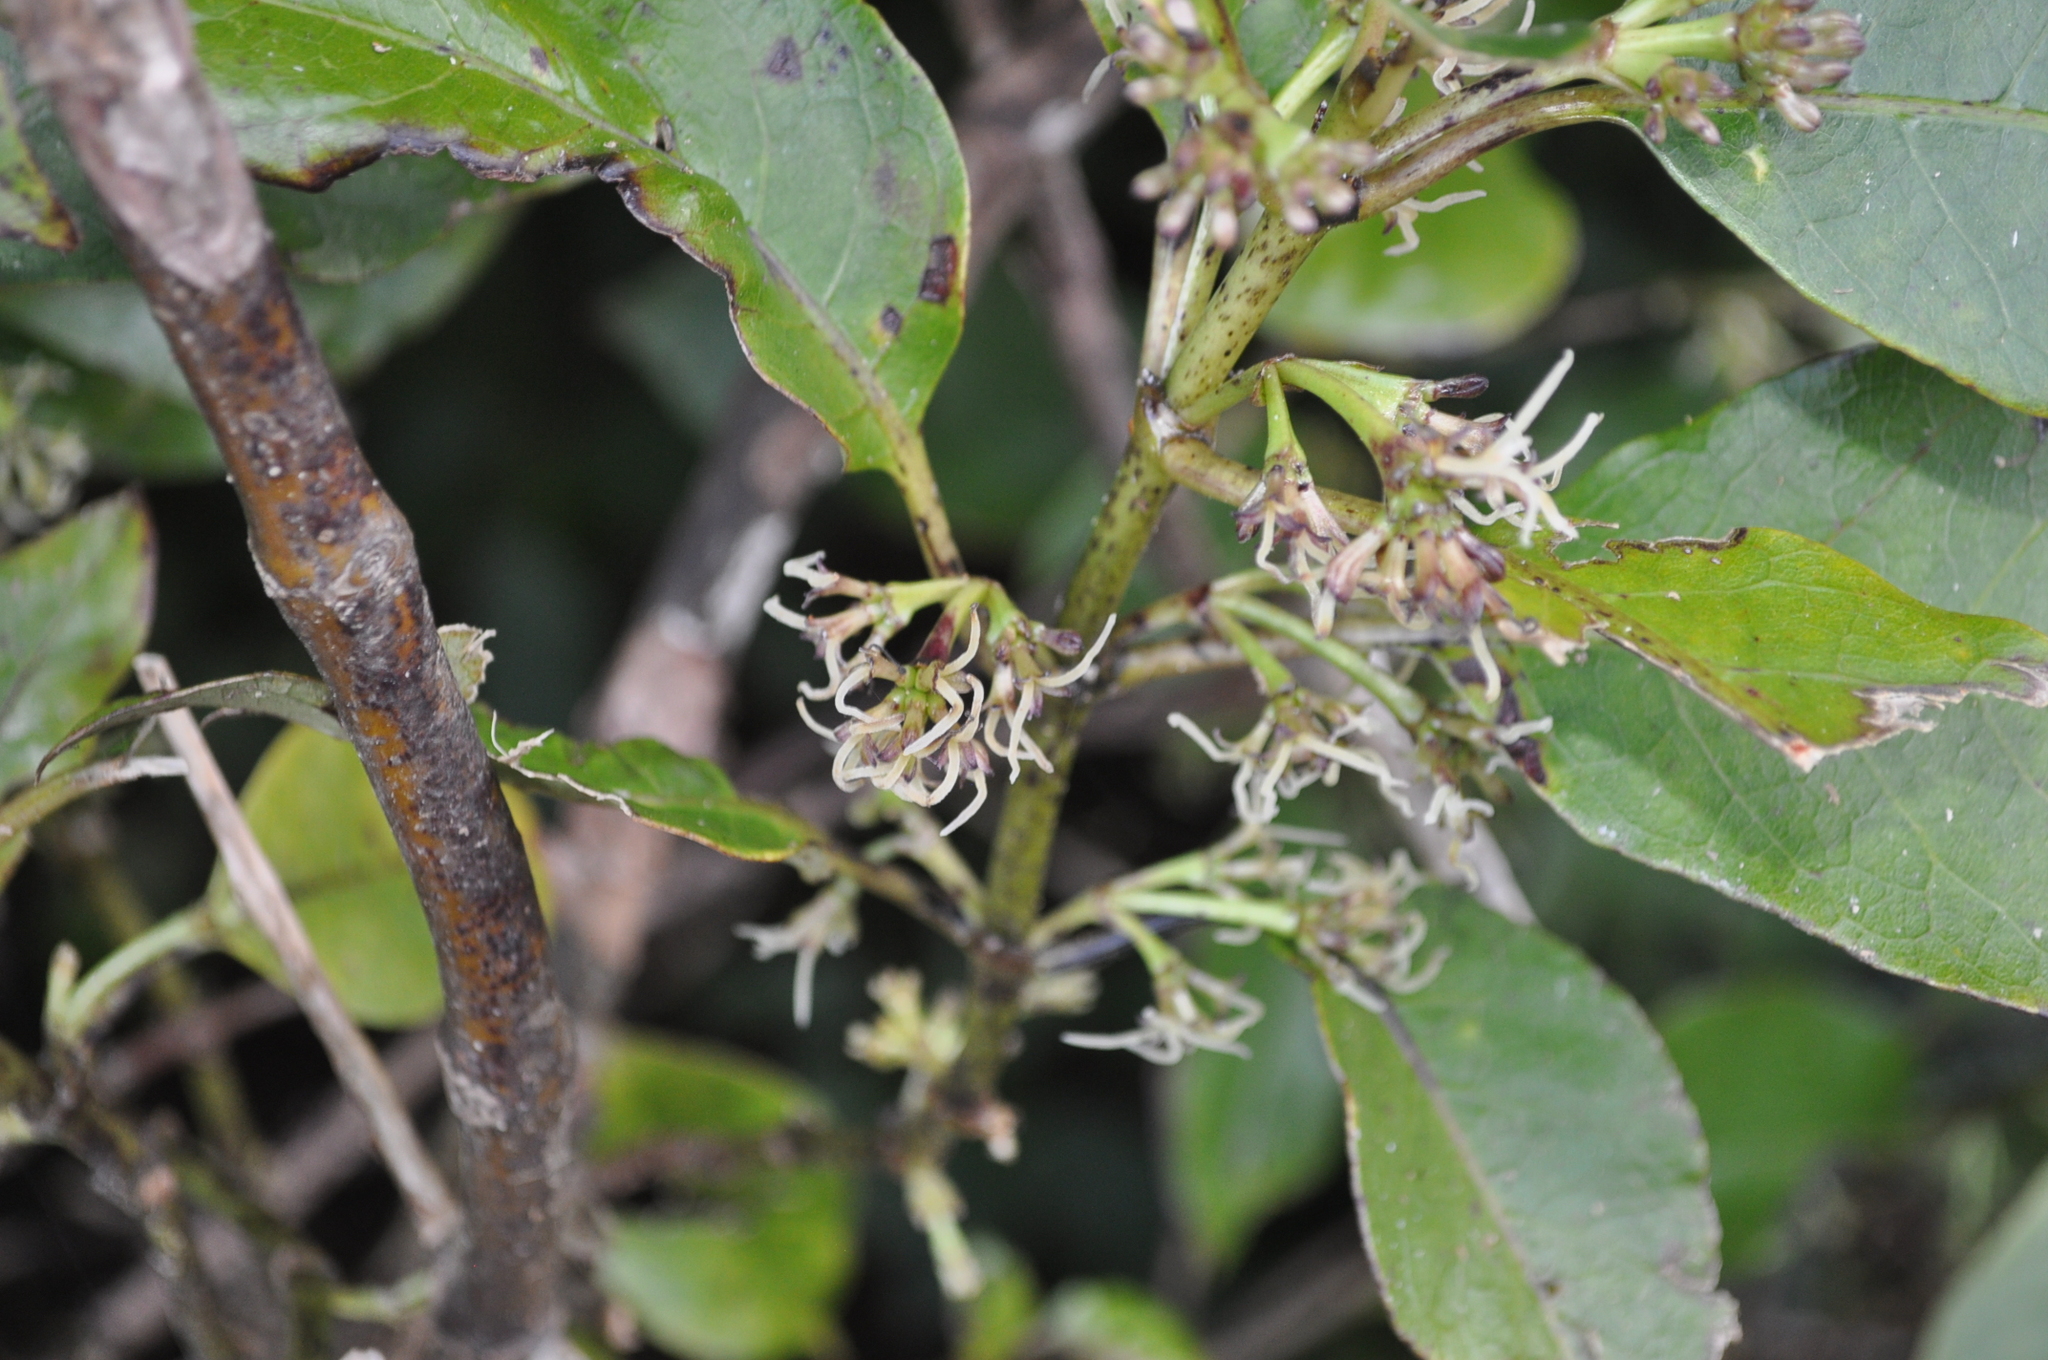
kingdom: Plantae
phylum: Tracheophyta
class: Magnoliopsida
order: Gentianales
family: Rubiaceae
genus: Coprosma
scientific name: Coprosma autumnalis
